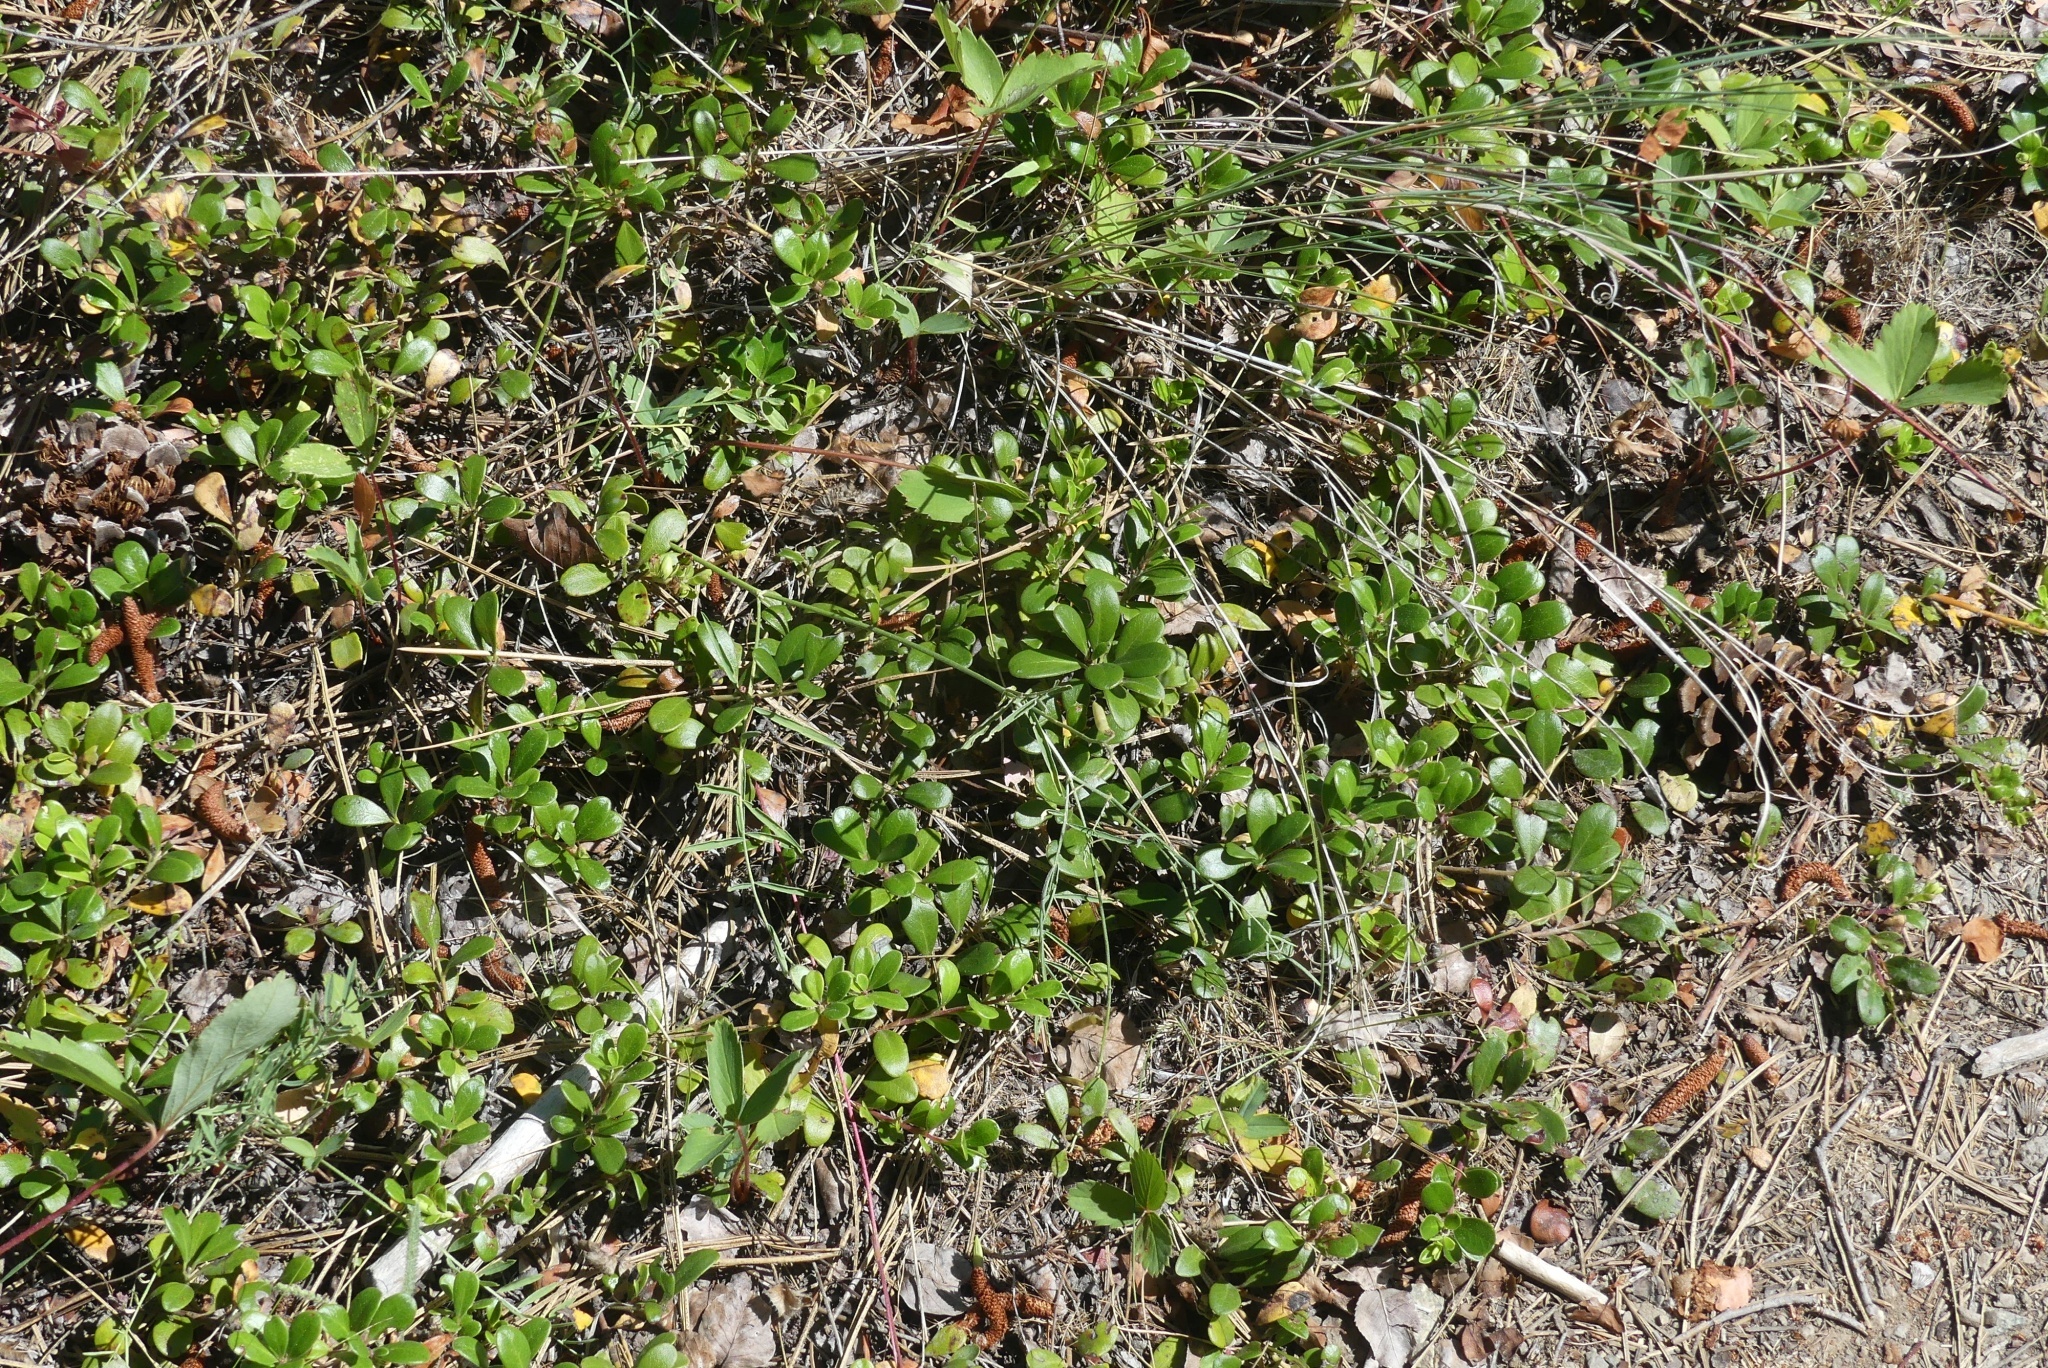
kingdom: Plantae
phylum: Tracheophyta
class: Magnoliopsida
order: Ericales
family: Ericaceae
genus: Arctostaphylos
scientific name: Arctostaphylos uva-ursi
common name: Bearberry
